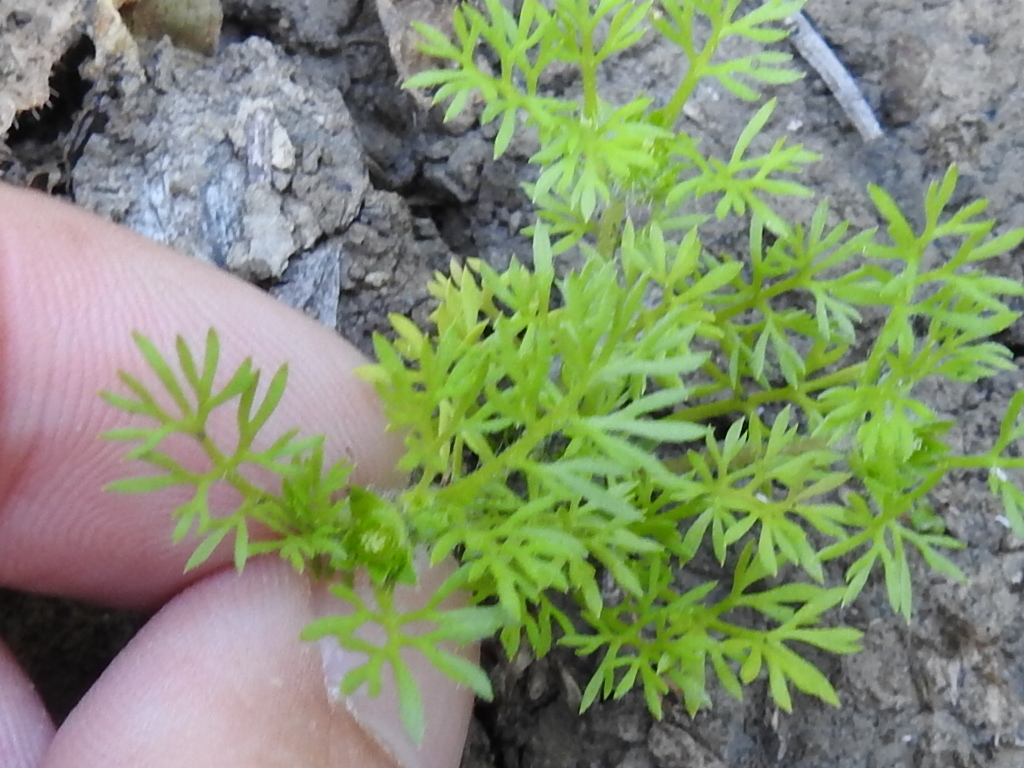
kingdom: Plantae
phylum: Tracheophyta
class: Magnoliopsida
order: Asterales
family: Asteraceae
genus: Soliva
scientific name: Soliva sessilis
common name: Field burrweed
